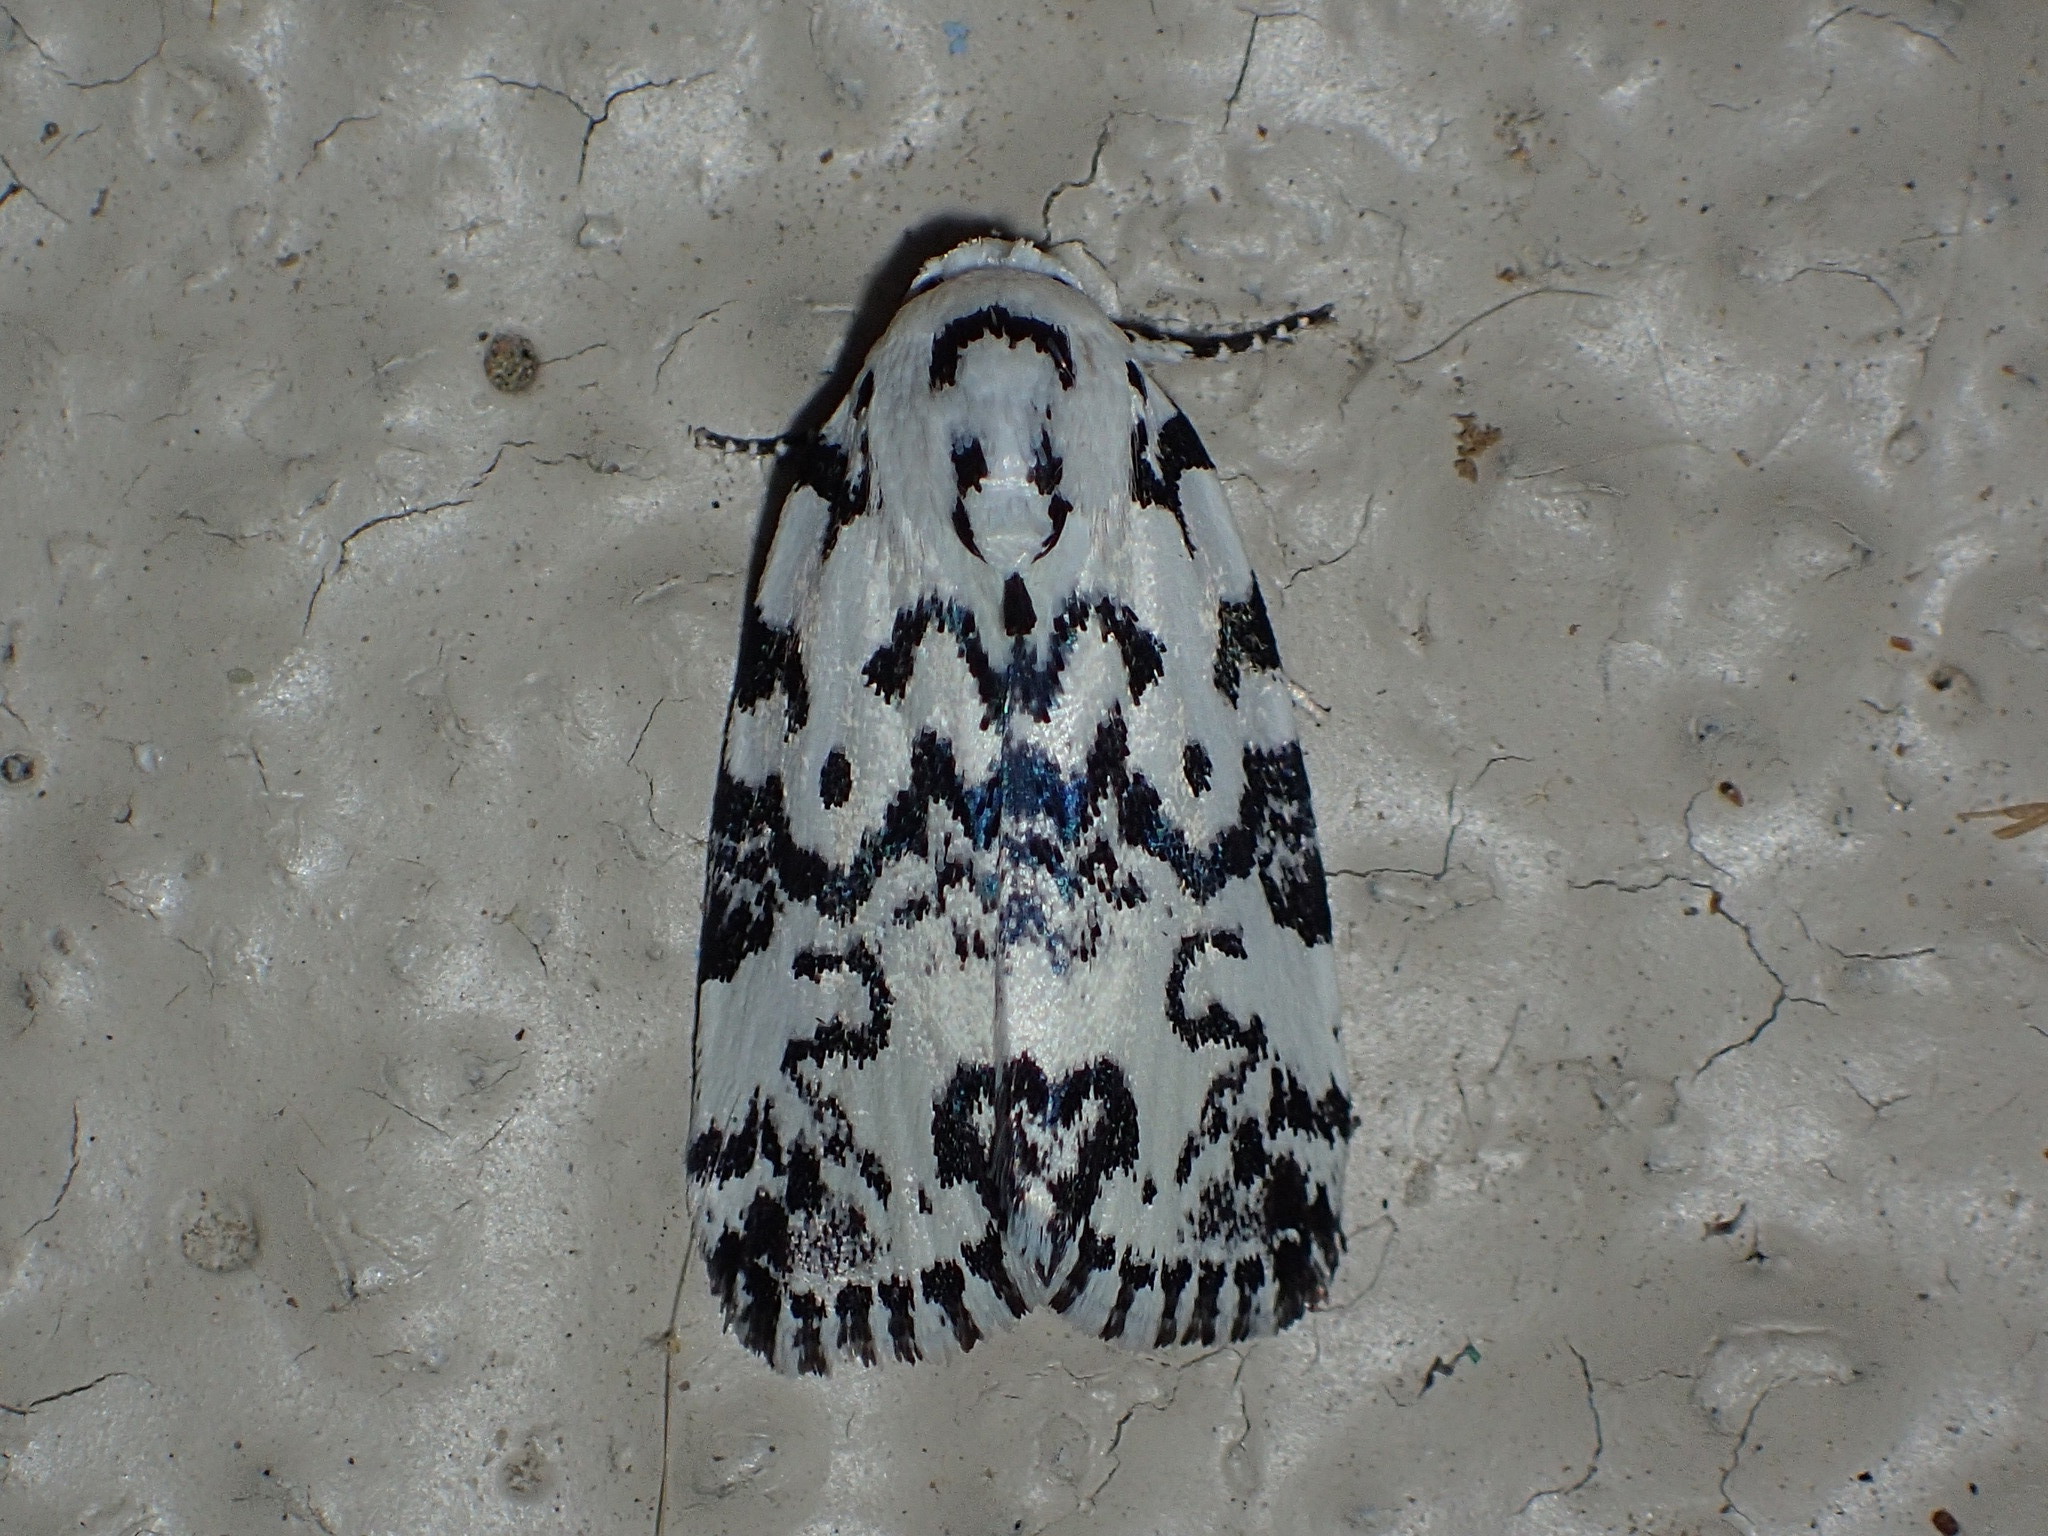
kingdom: Animalia
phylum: Arthropoda
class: Insecta
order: Lepidoptera
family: Noctuidae
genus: Polygrammate
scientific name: Polygrammate hebraeicum
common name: Hebrew moth
